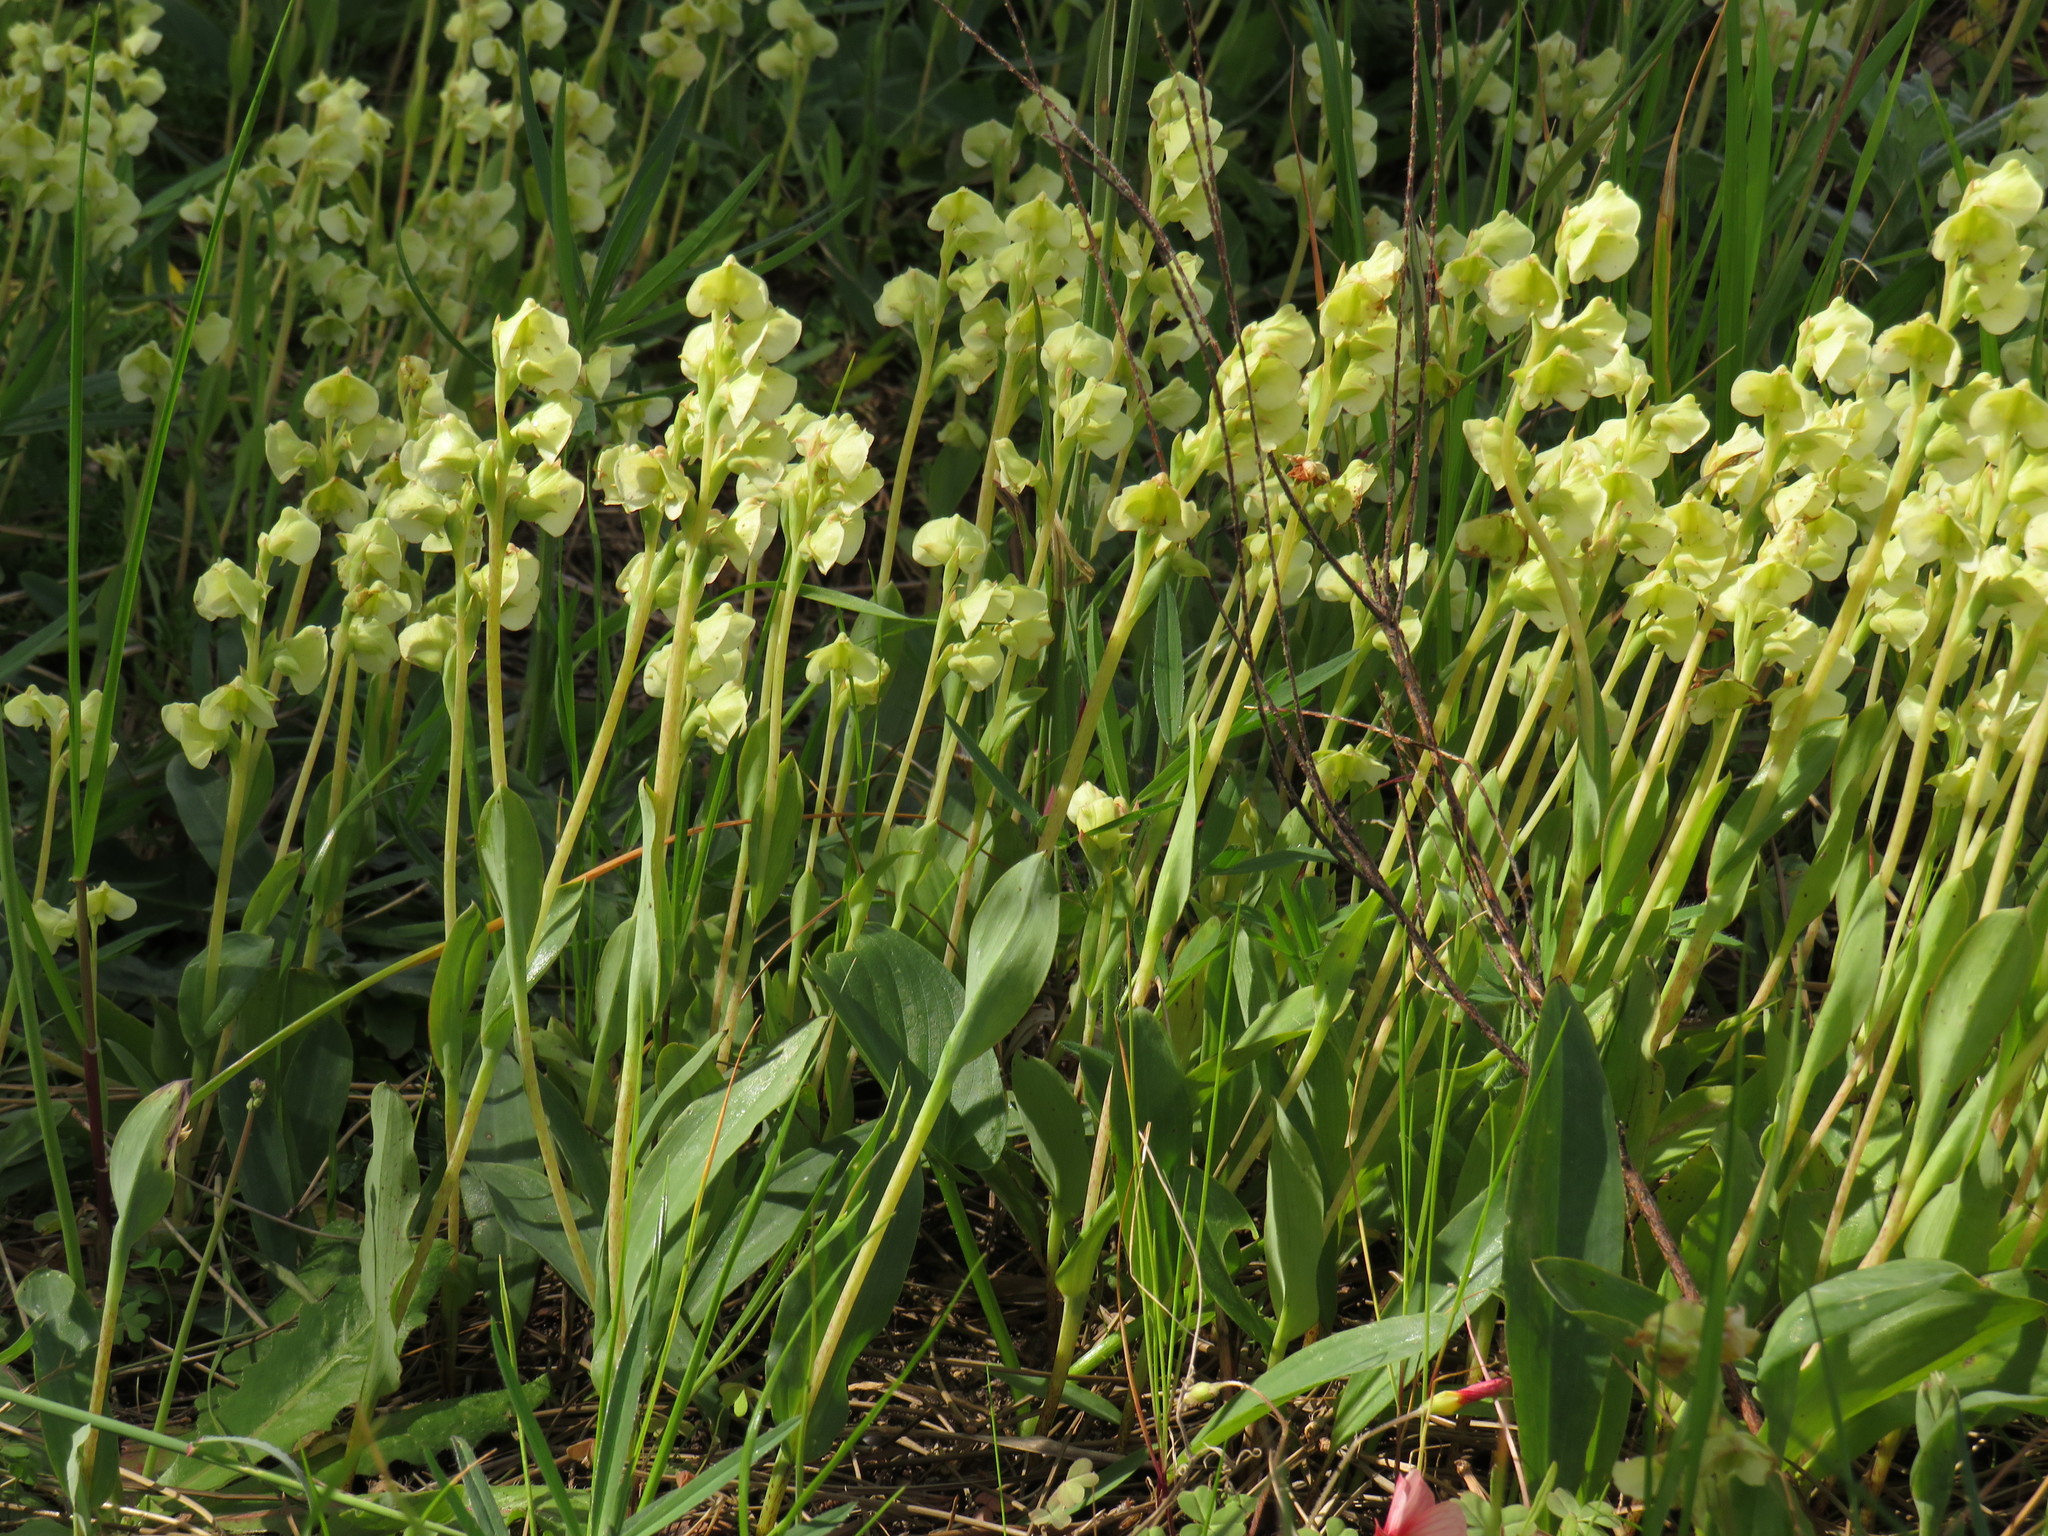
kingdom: Plantae
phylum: Tracheophyta
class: Liliopsida
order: Asparagales
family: Orchidaceae
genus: Pterygodium
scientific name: Pterygodium catholicum
